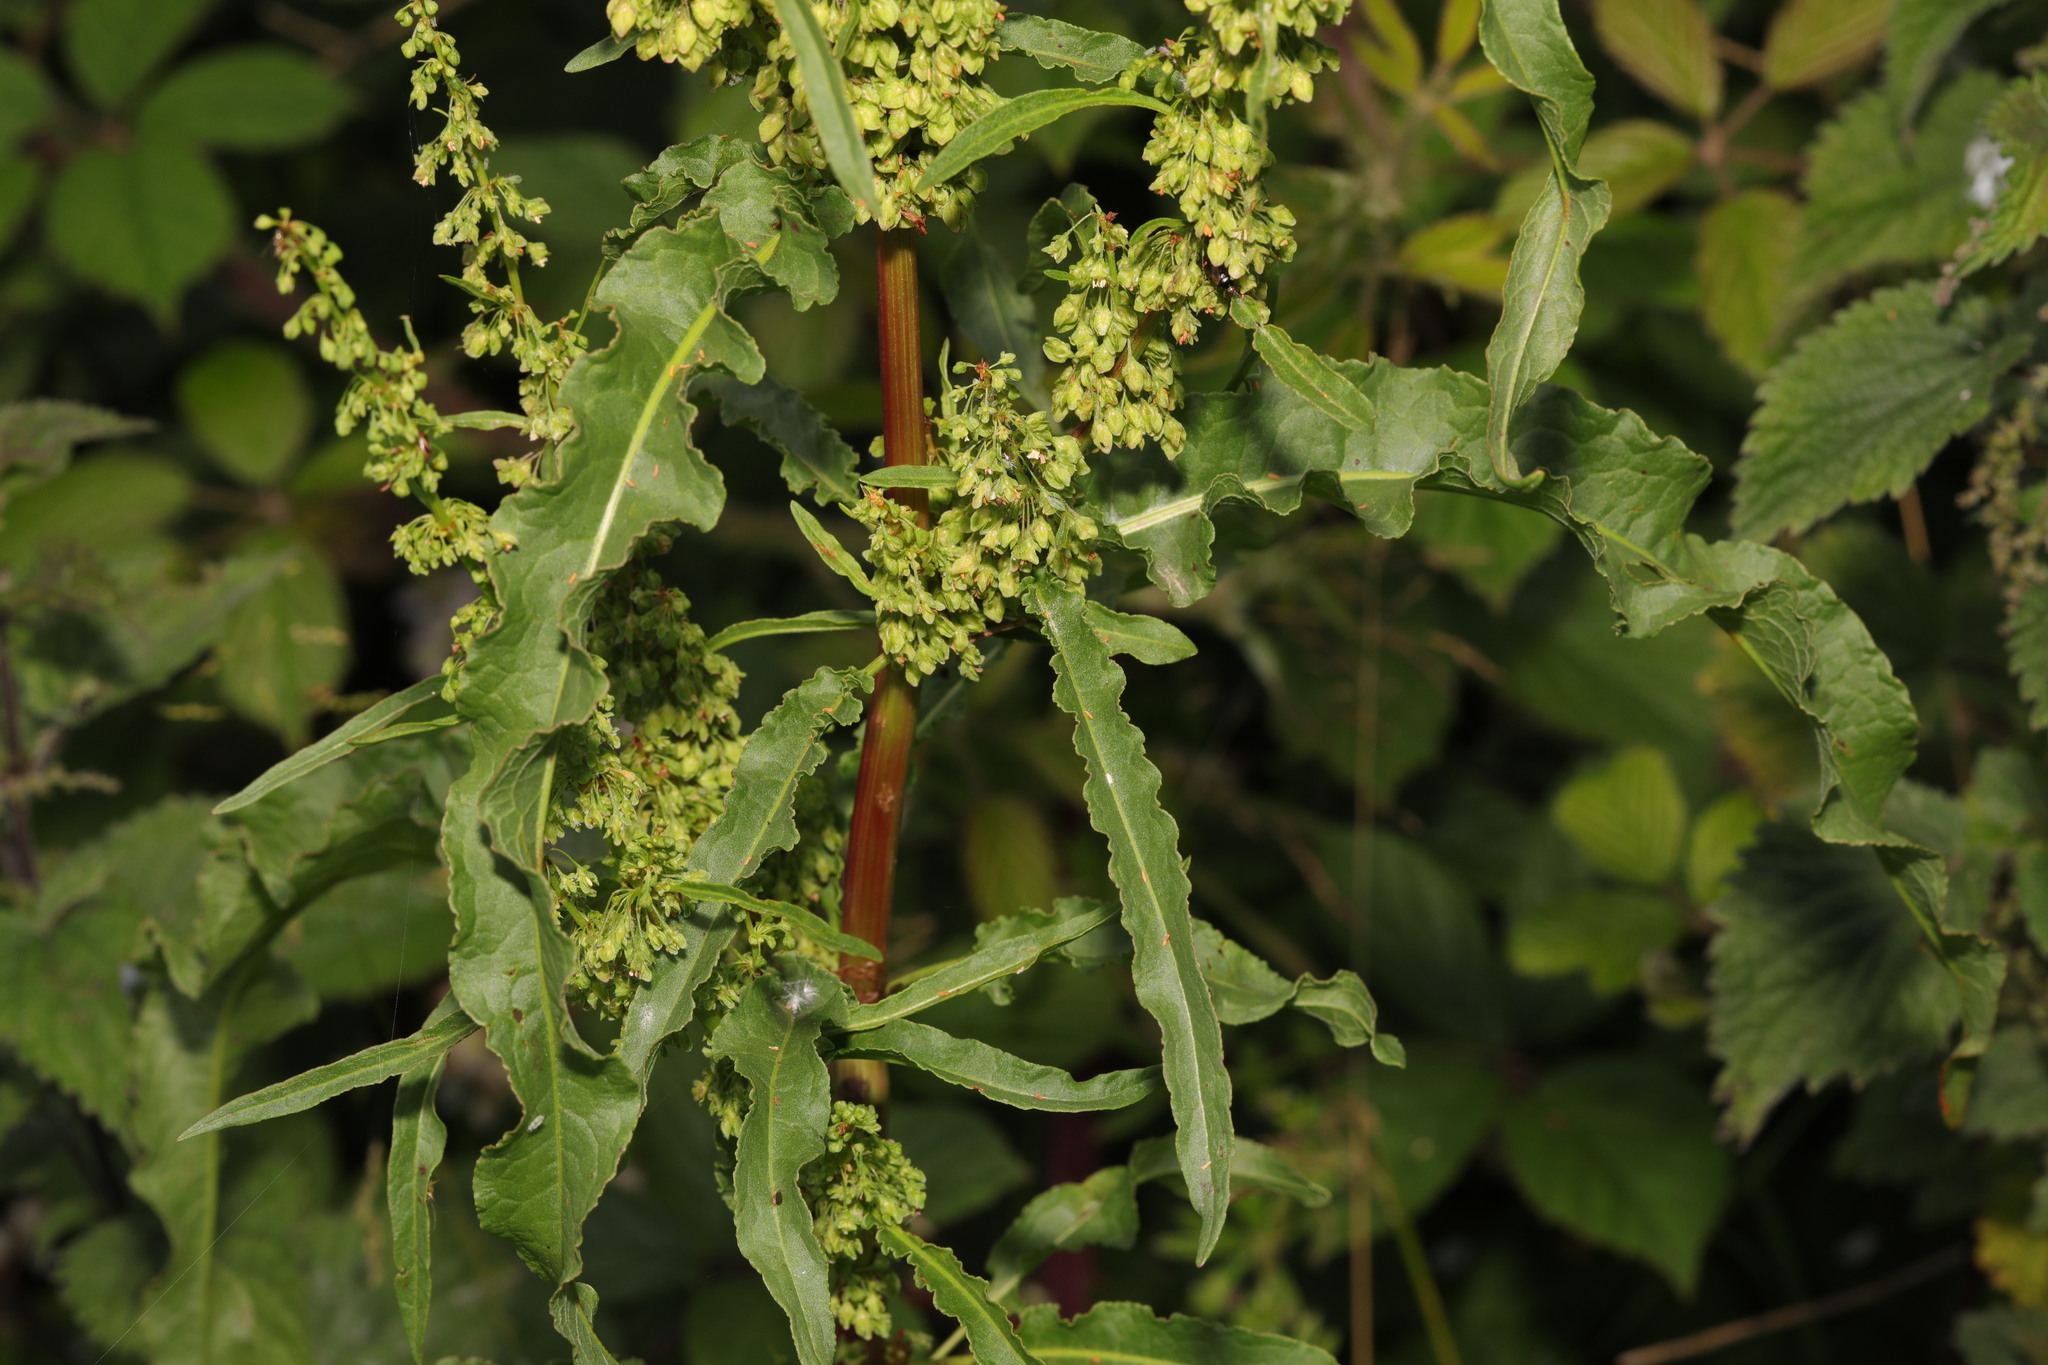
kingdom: Plantae
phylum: Tracheophyta
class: Magnoliopsida
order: Caryophyllales
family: Polygonaceae
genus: Rumex
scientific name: Rumex crispus
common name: Curled dock
